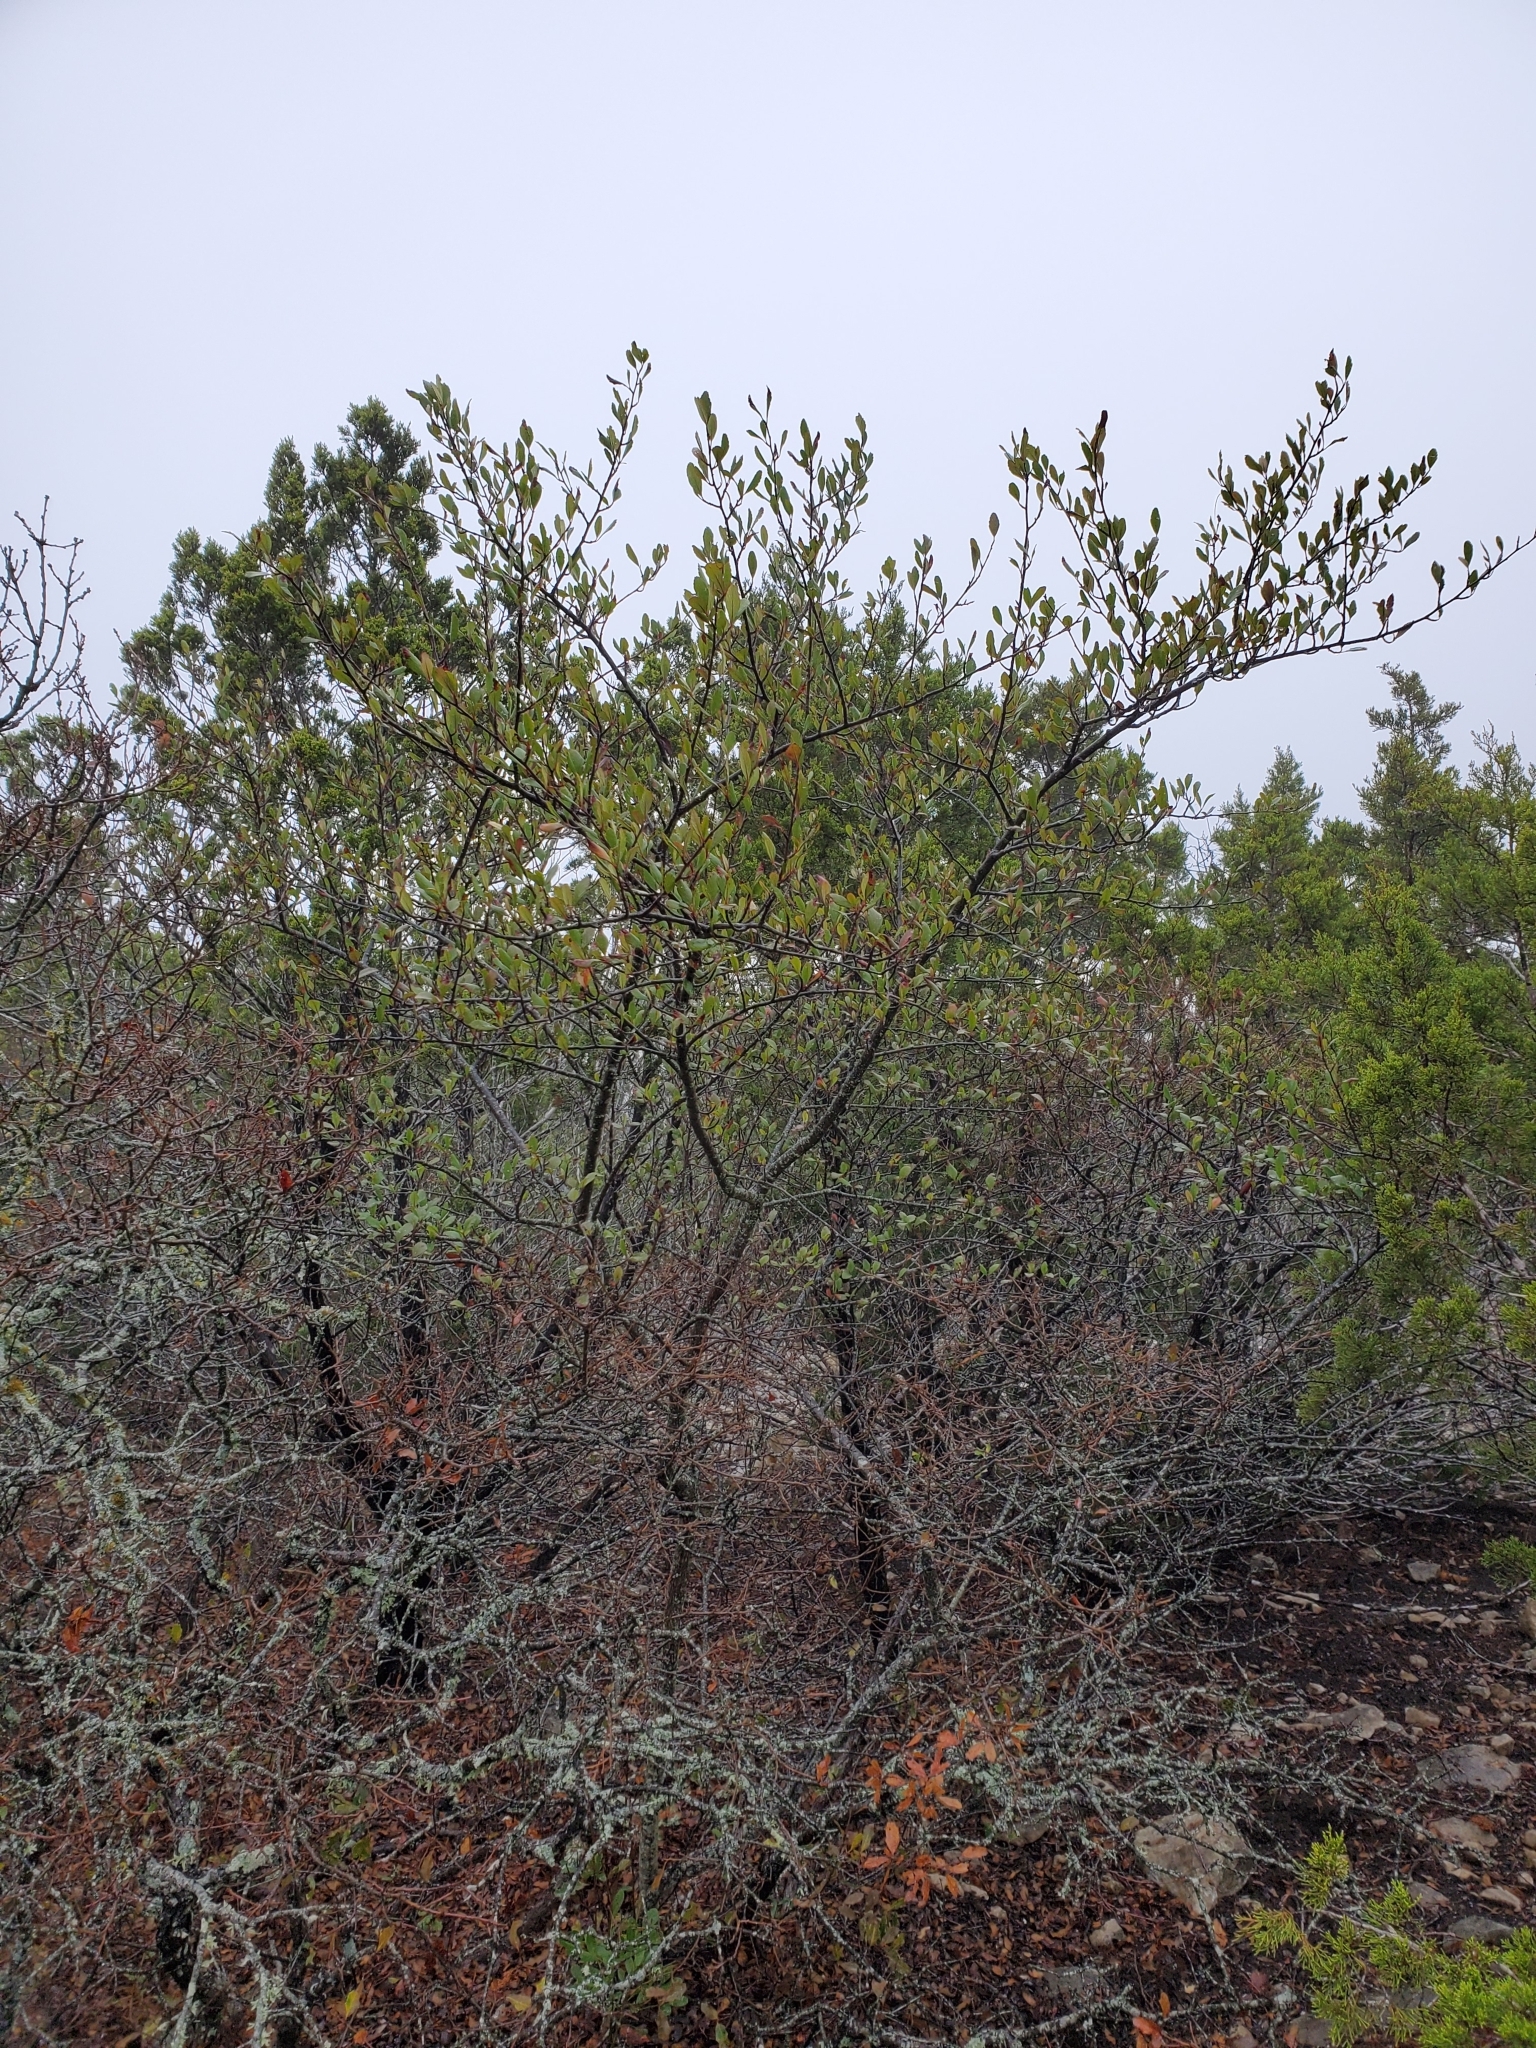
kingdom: Plantae
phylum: Tracheophyta
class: Magnoliopsida
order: Rosales
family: Rosaceae
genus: Cercocarpus
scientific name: Cercocarpus montanus
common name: Alder-leaf cercocarpus
